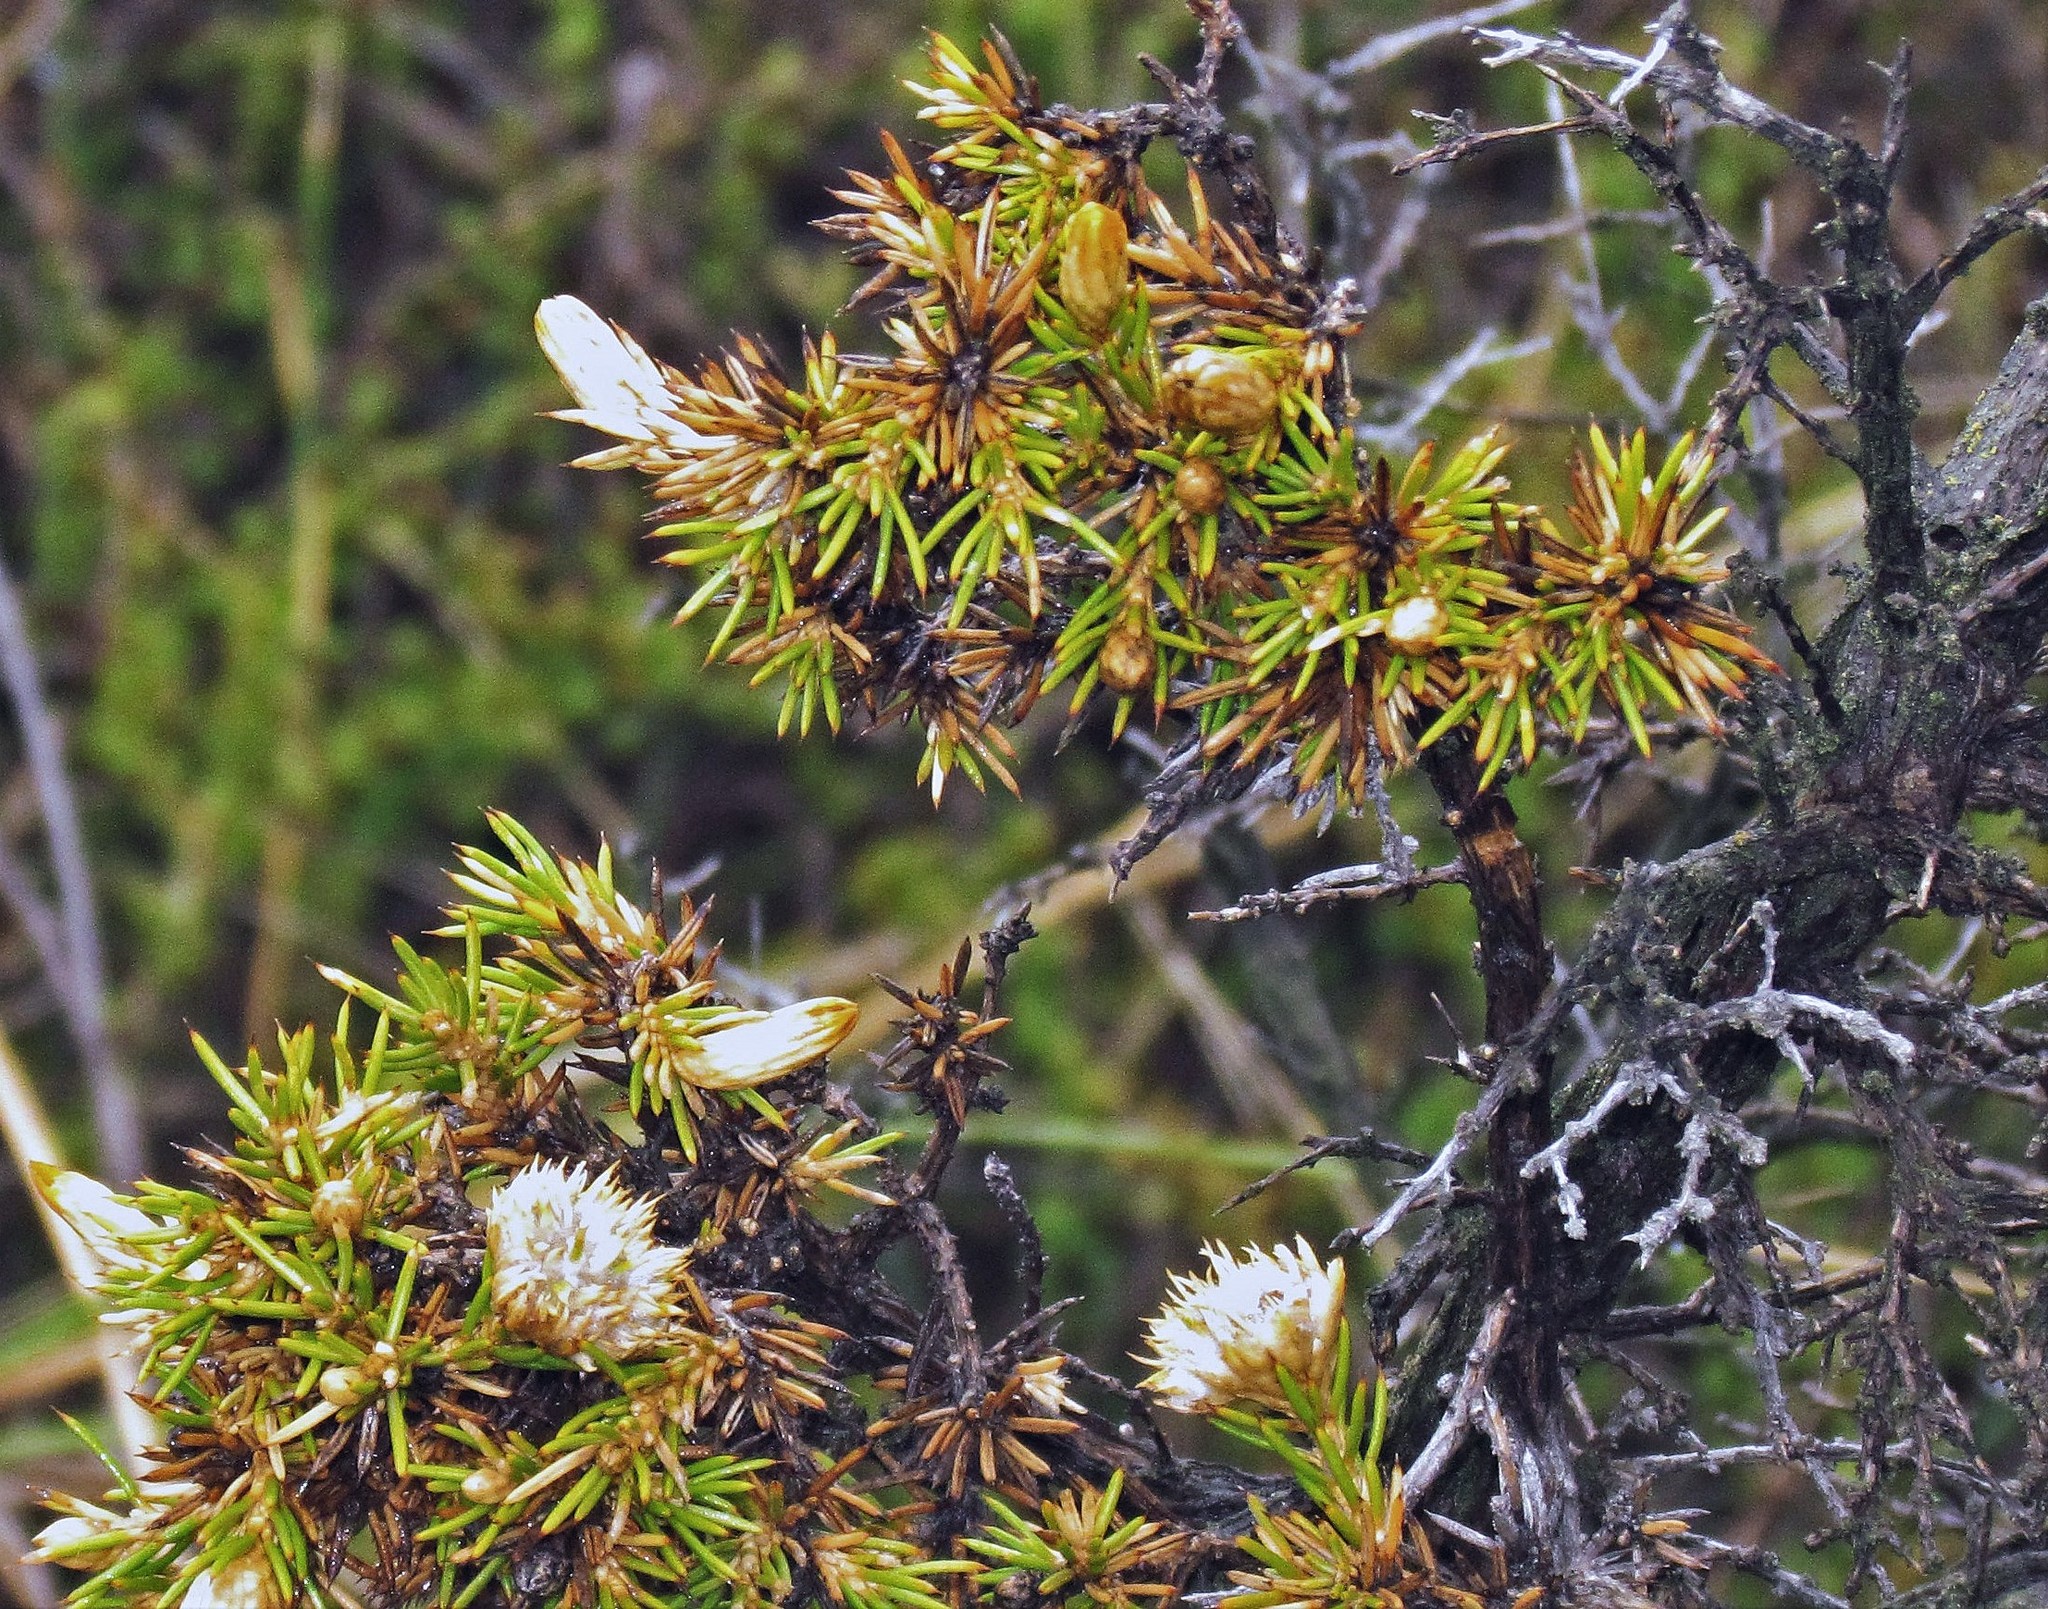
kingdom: Plantae
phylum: Tracheophyta
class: Magnoliopsida
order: Asterales
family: Asteraceae
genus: Chuquiraga
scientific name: Chuquiraga erinacea
